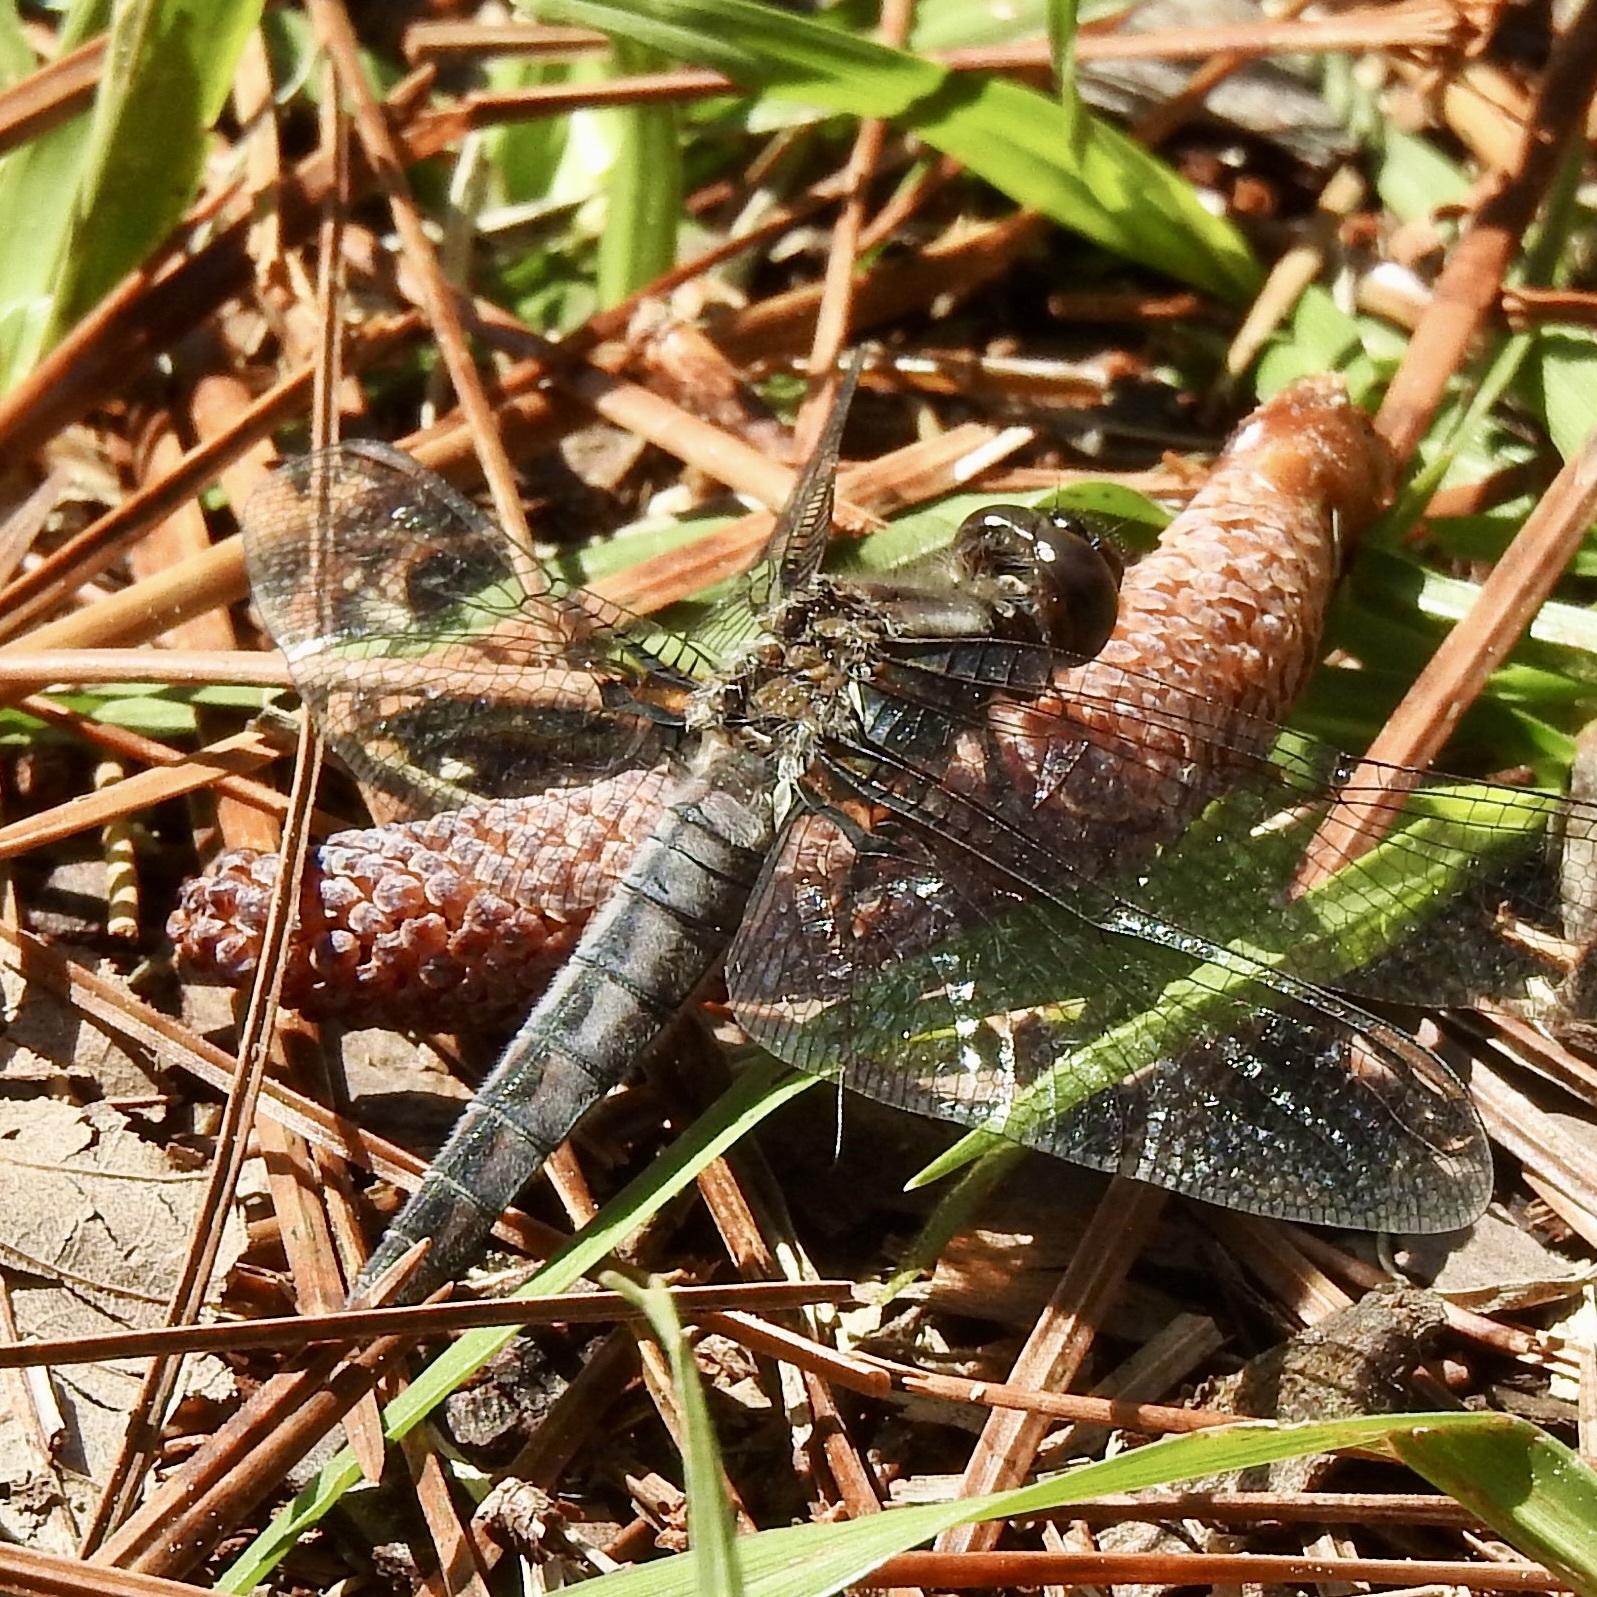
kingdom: Animalia
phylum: Arthropoda
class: Insecta
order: Odonata
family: Libellulidae
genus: Ladona
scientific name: Ladona deplanata
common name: Blue corporal
